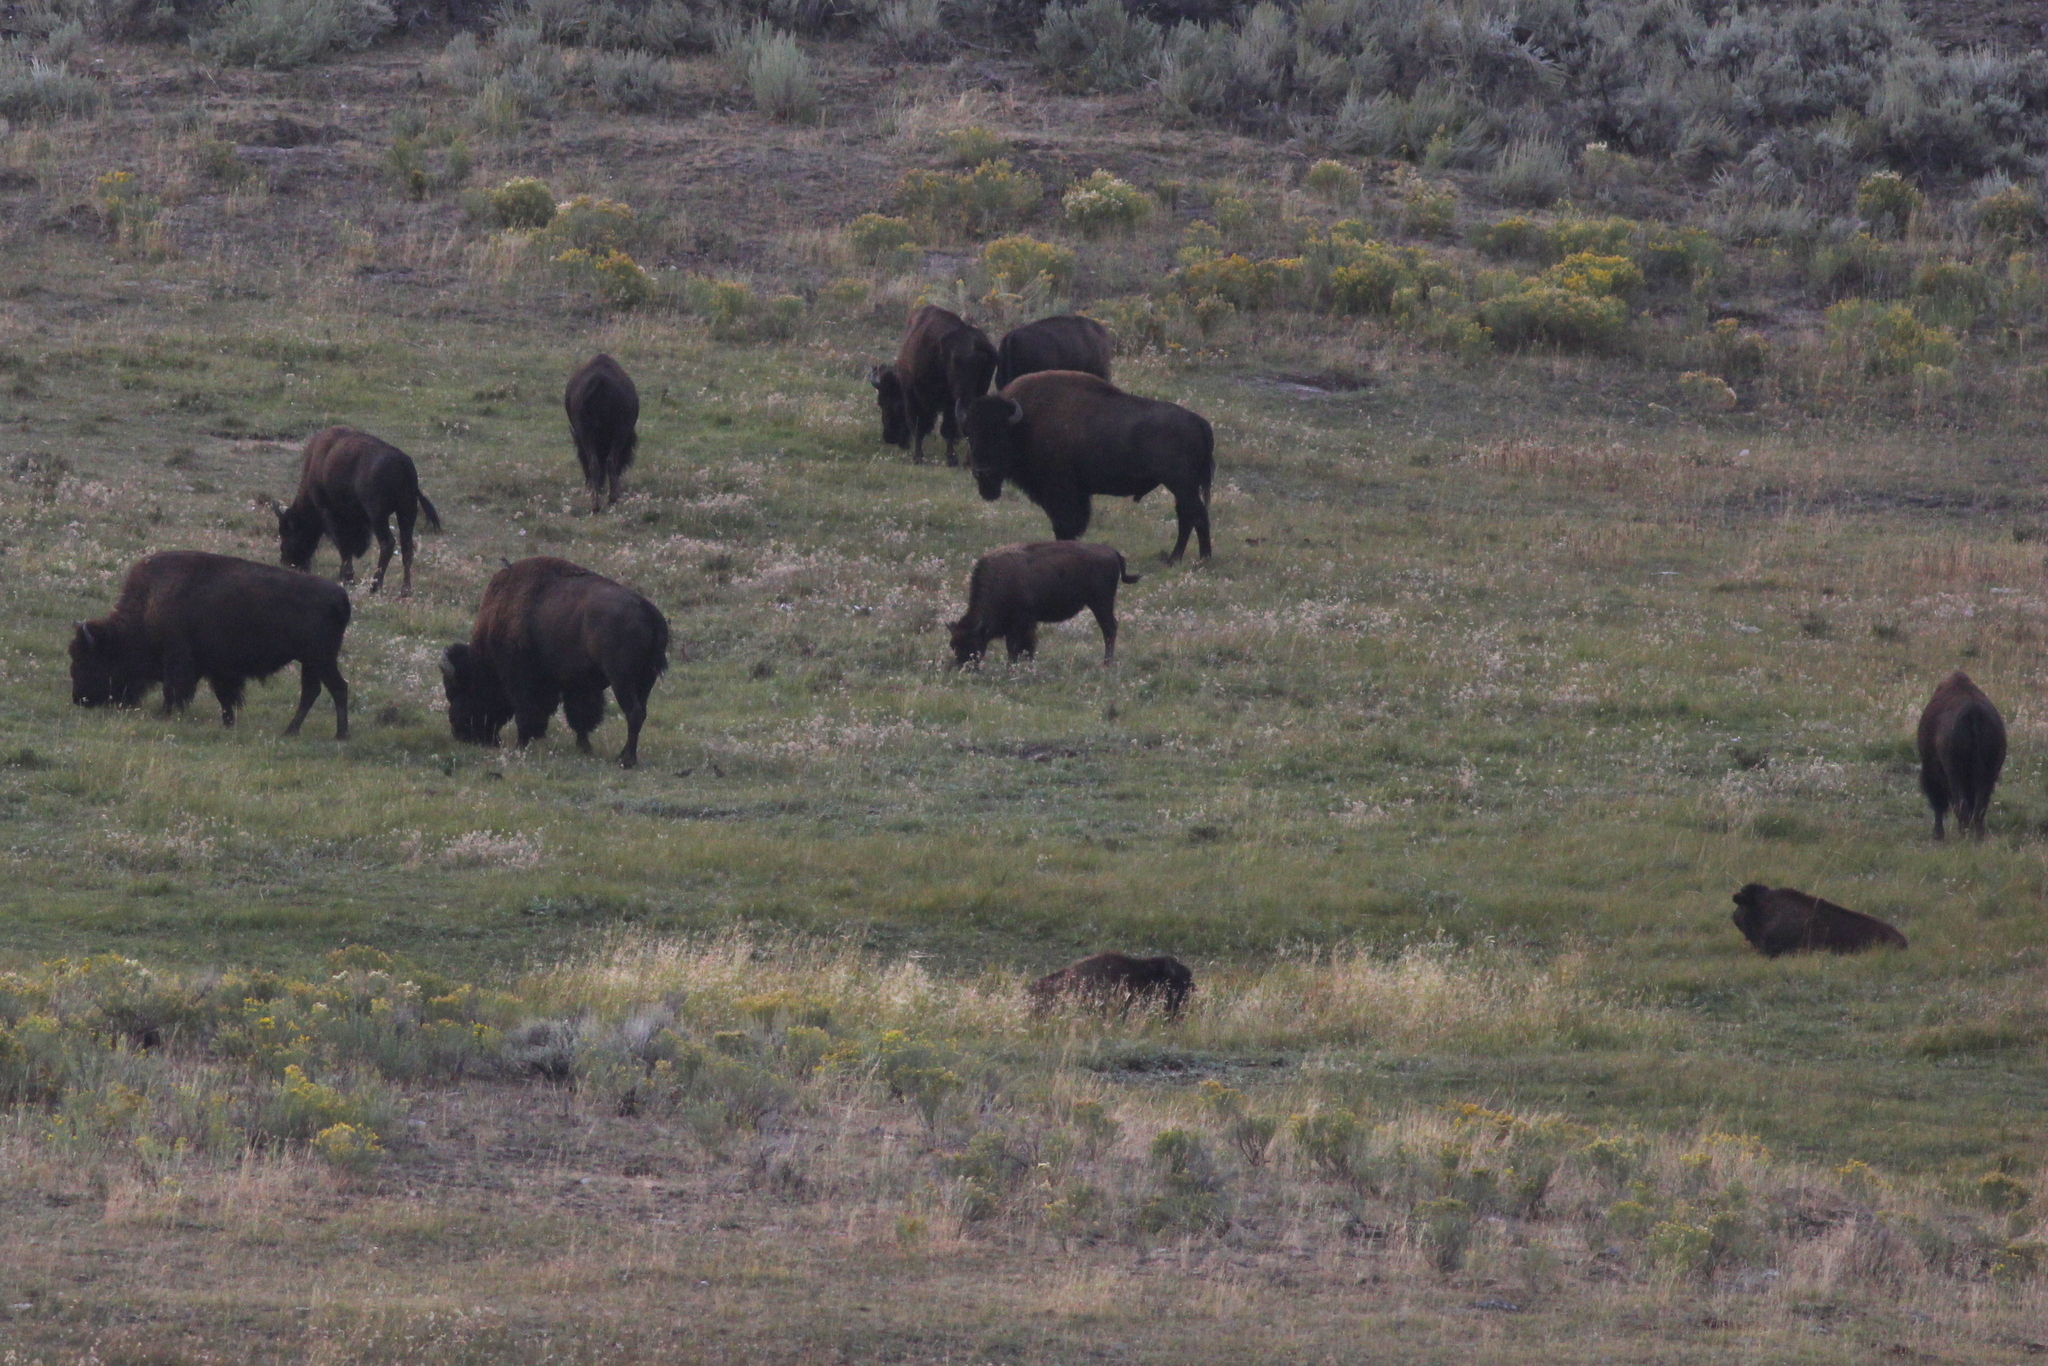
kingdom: Animalia
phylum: Chordata
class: Mammalia
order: Artiodactyla
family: Bovidae
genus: Bison
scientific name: Bison bison
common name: American bison
